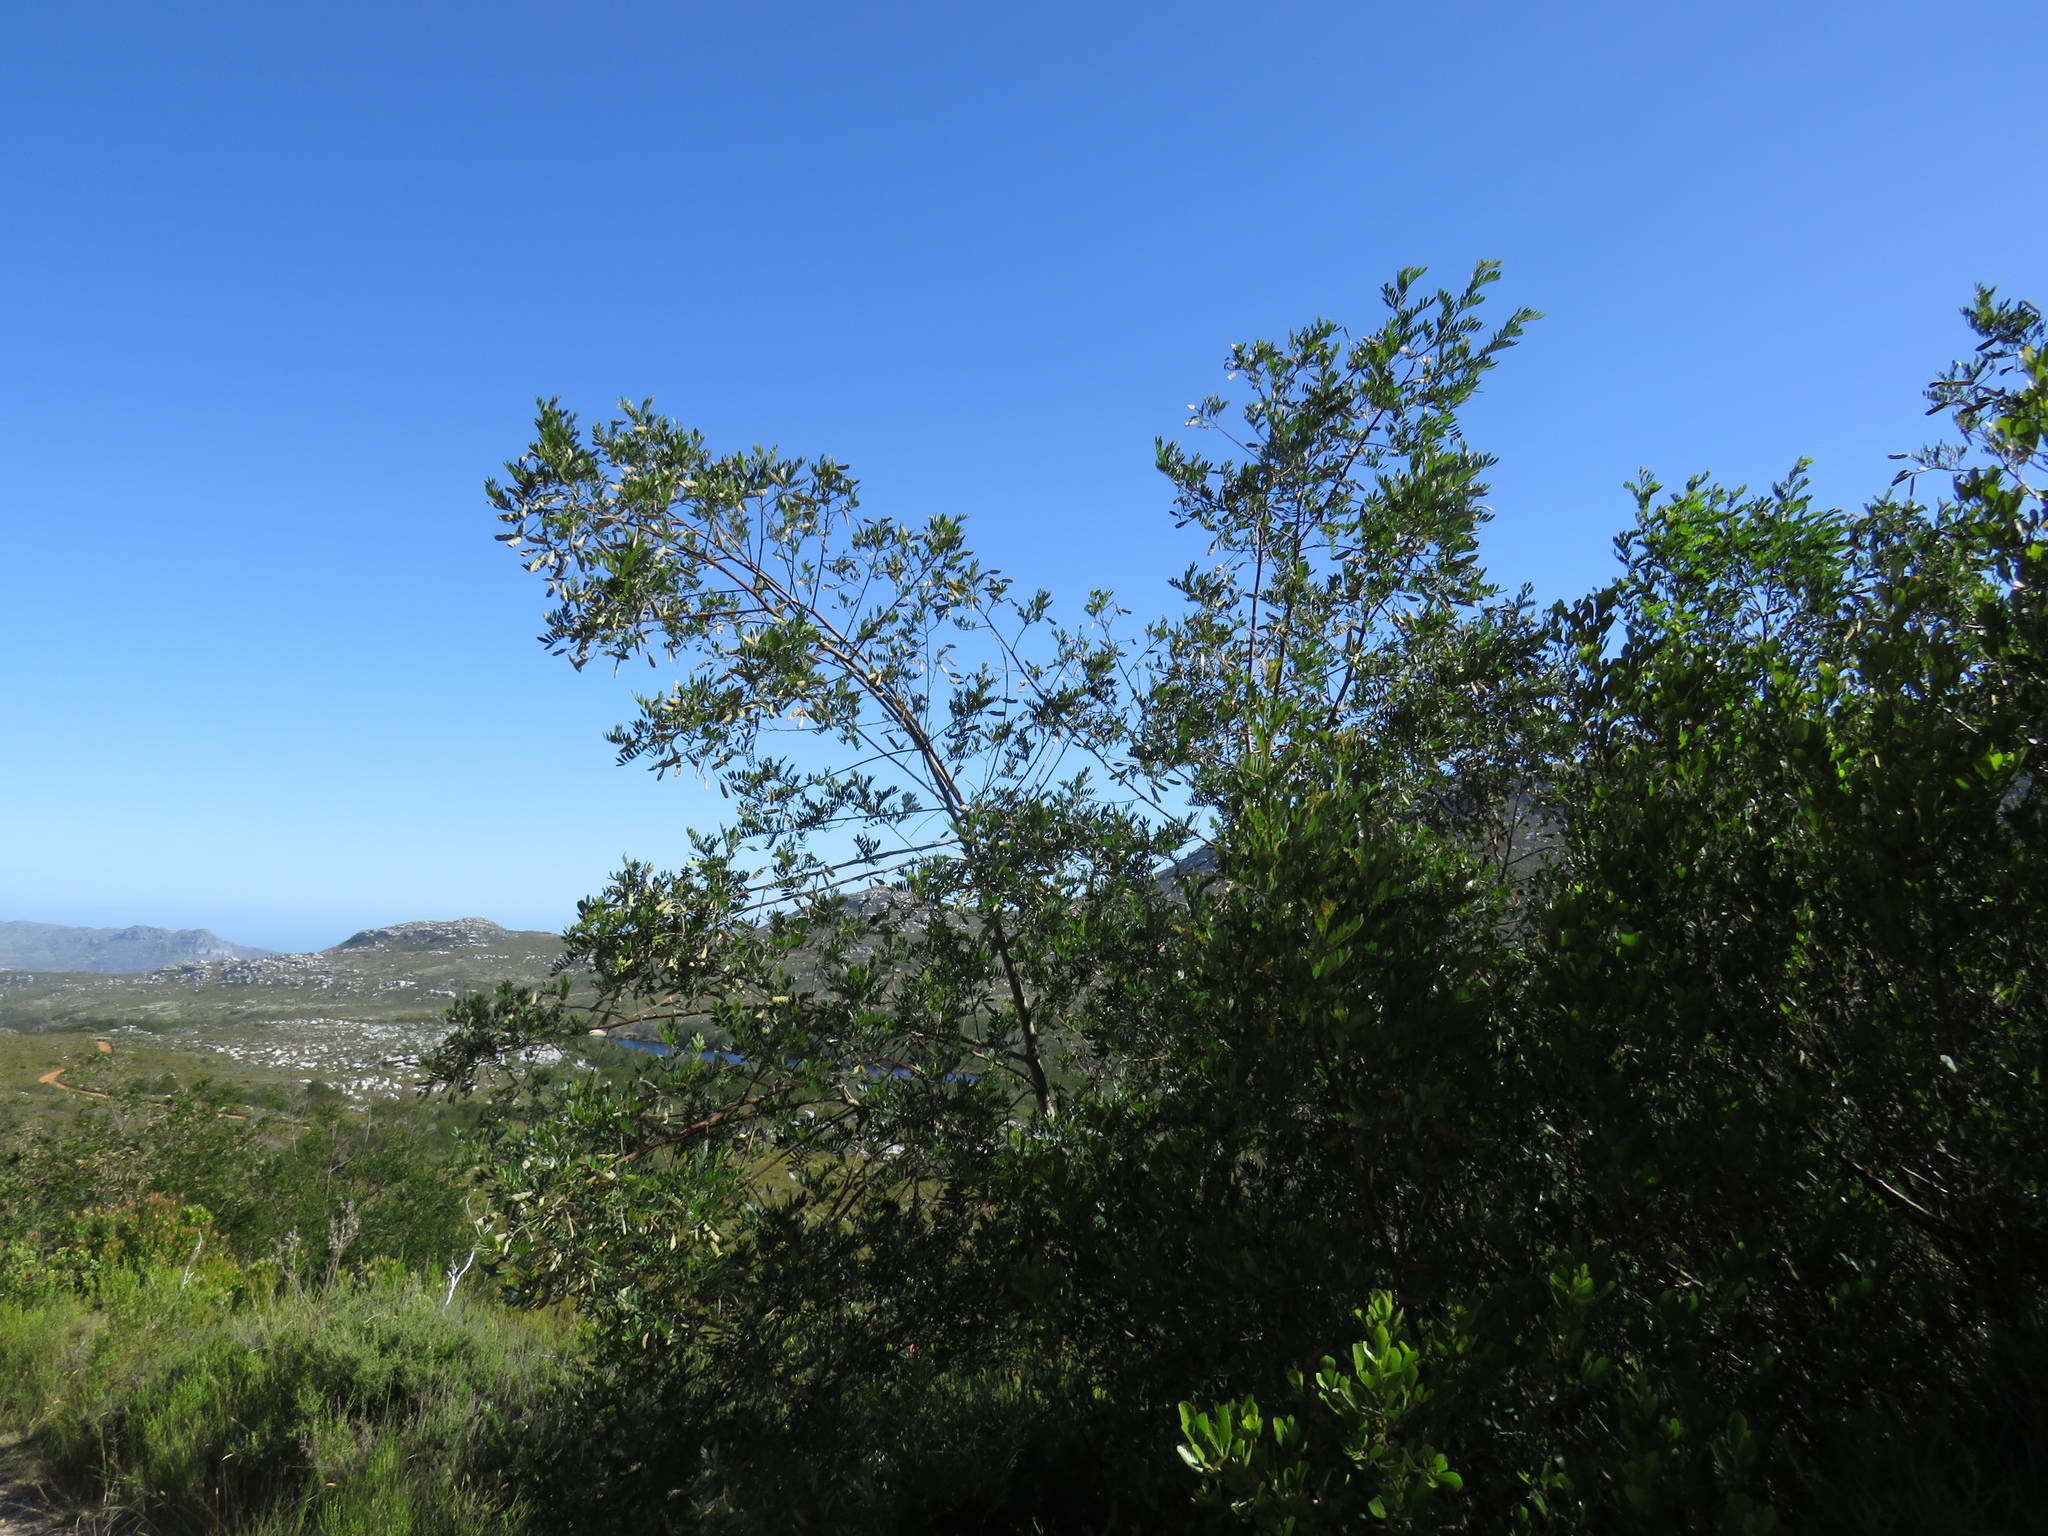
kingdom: Plantae
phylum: Tracheophyta
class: Magnoliopsida
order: Fabales
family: Fabaceae
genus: Virgilia
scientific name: Virgilia oroboides
